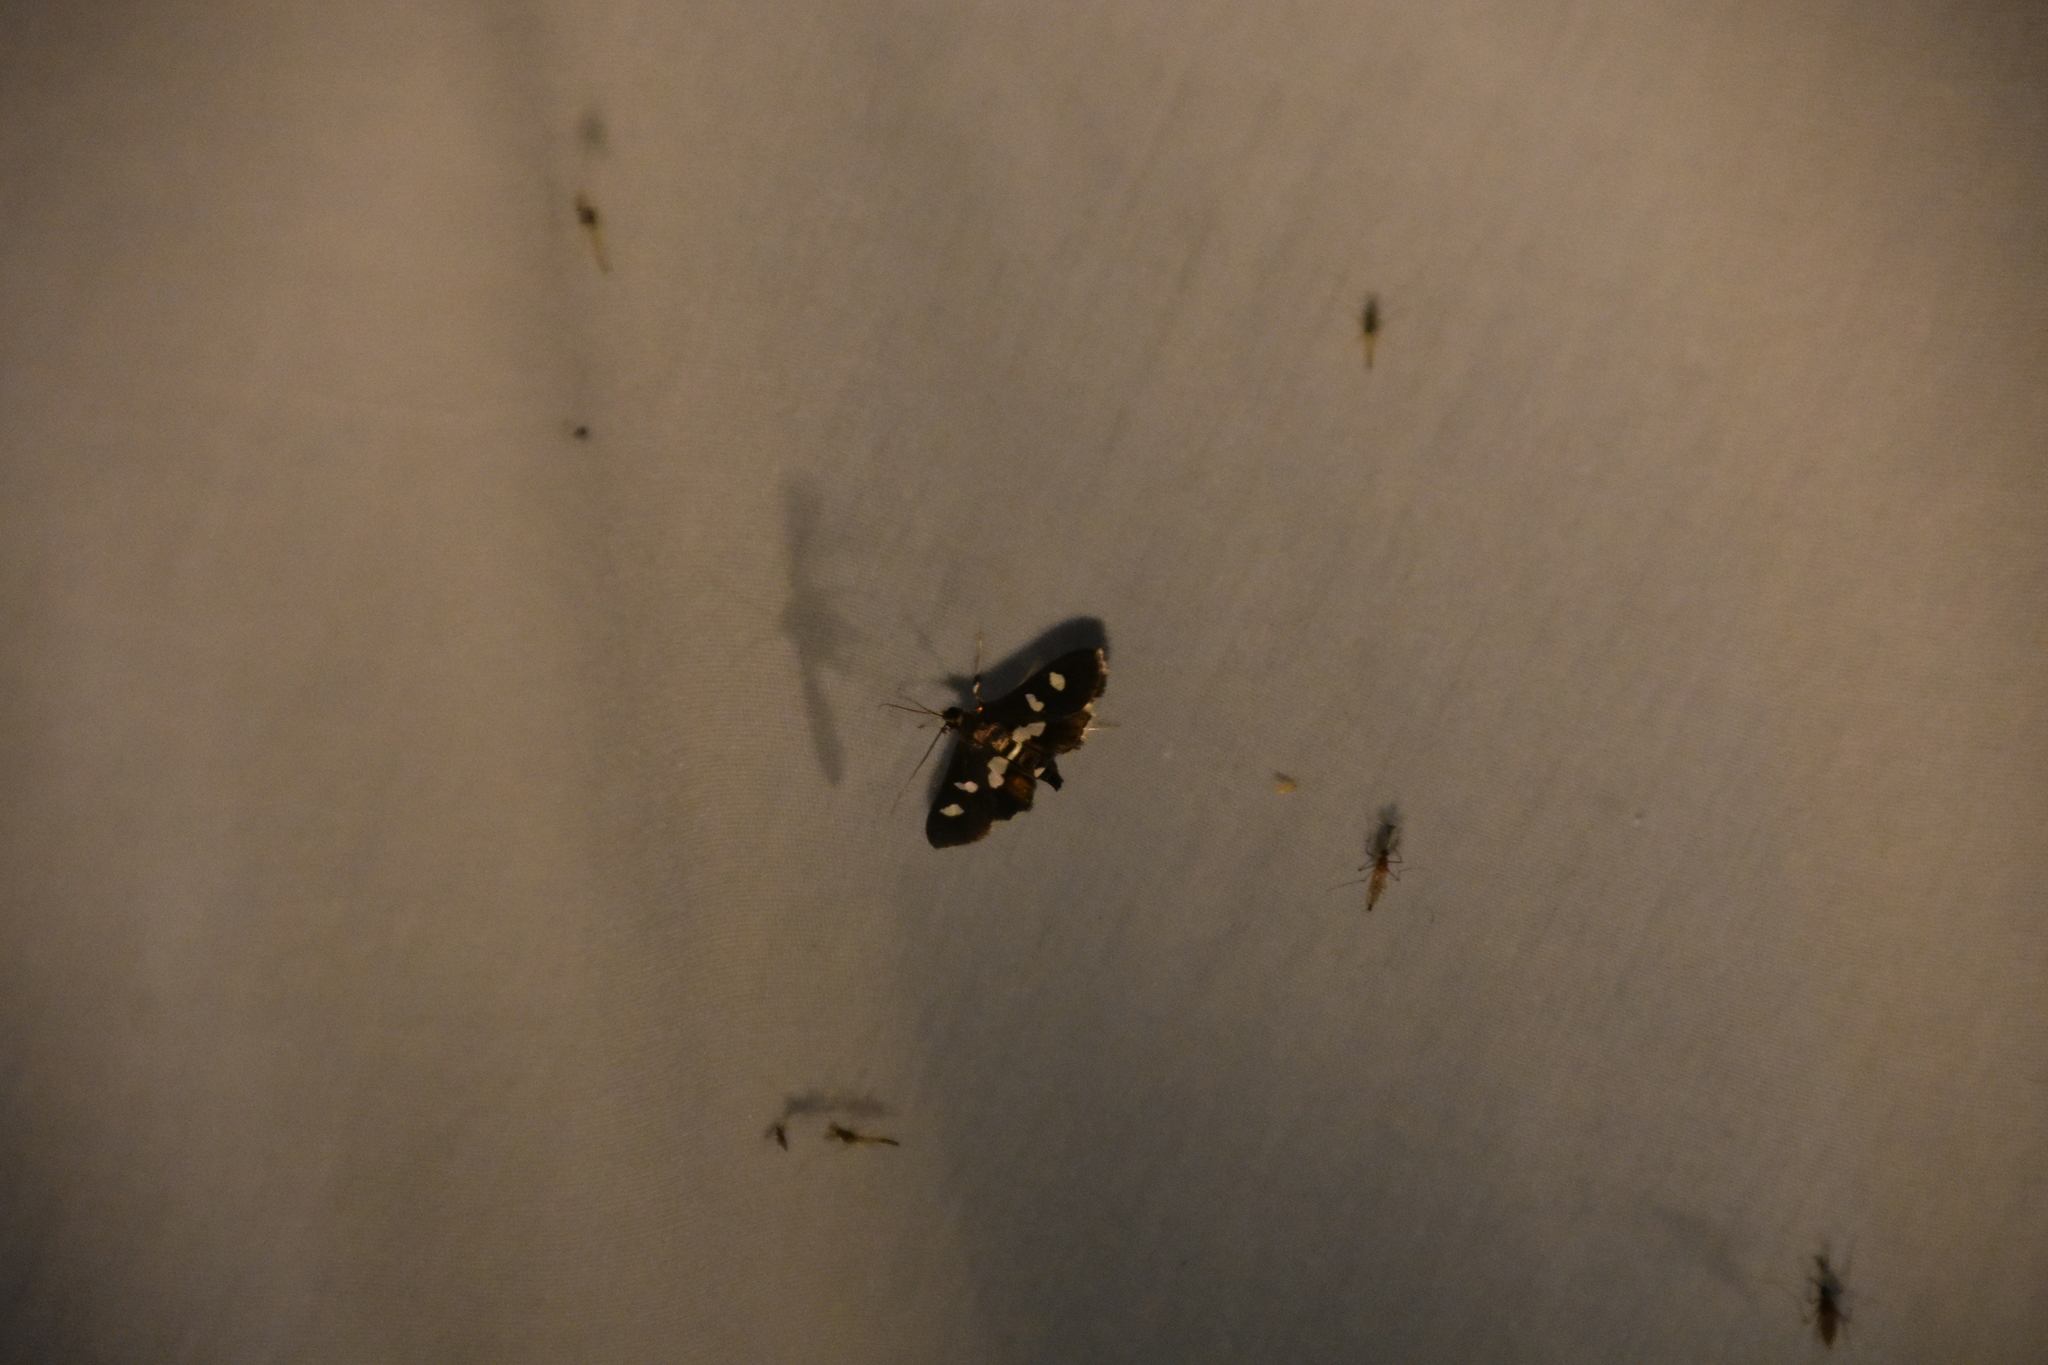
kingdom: Animalia
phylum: Arthropoda
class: Insecta
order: Lepidoptera
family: Crambidae
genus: Desmia
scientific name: Desmia
